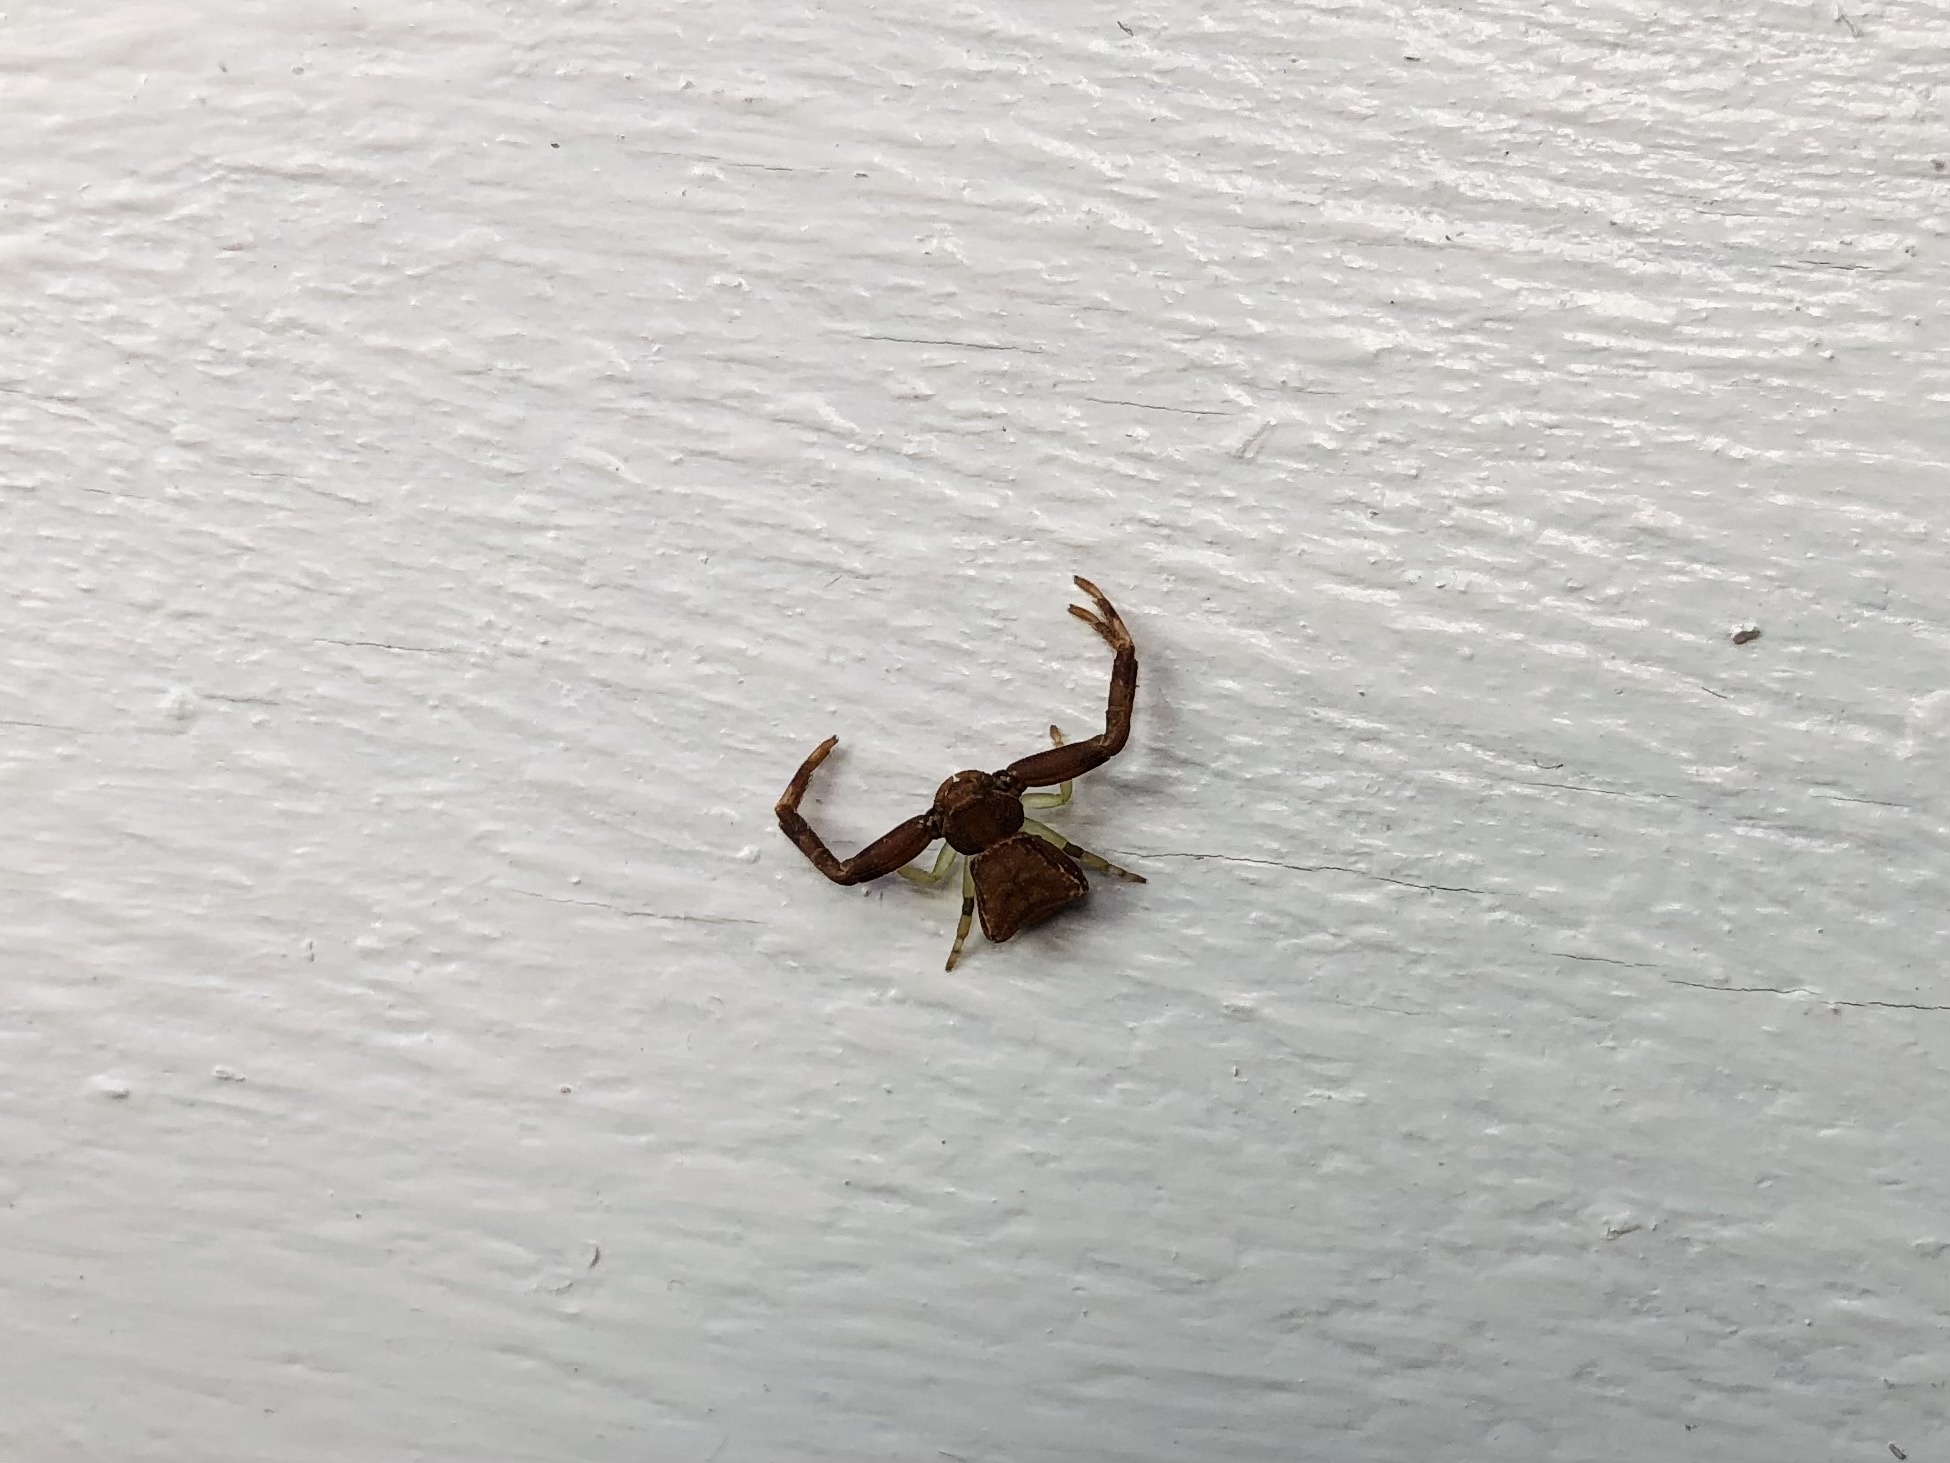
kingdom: Animalia
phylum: Arthropoda
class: Arachnida
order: Araneae
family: Thomisidae
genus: Pistius
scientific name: Pistius truncatus
